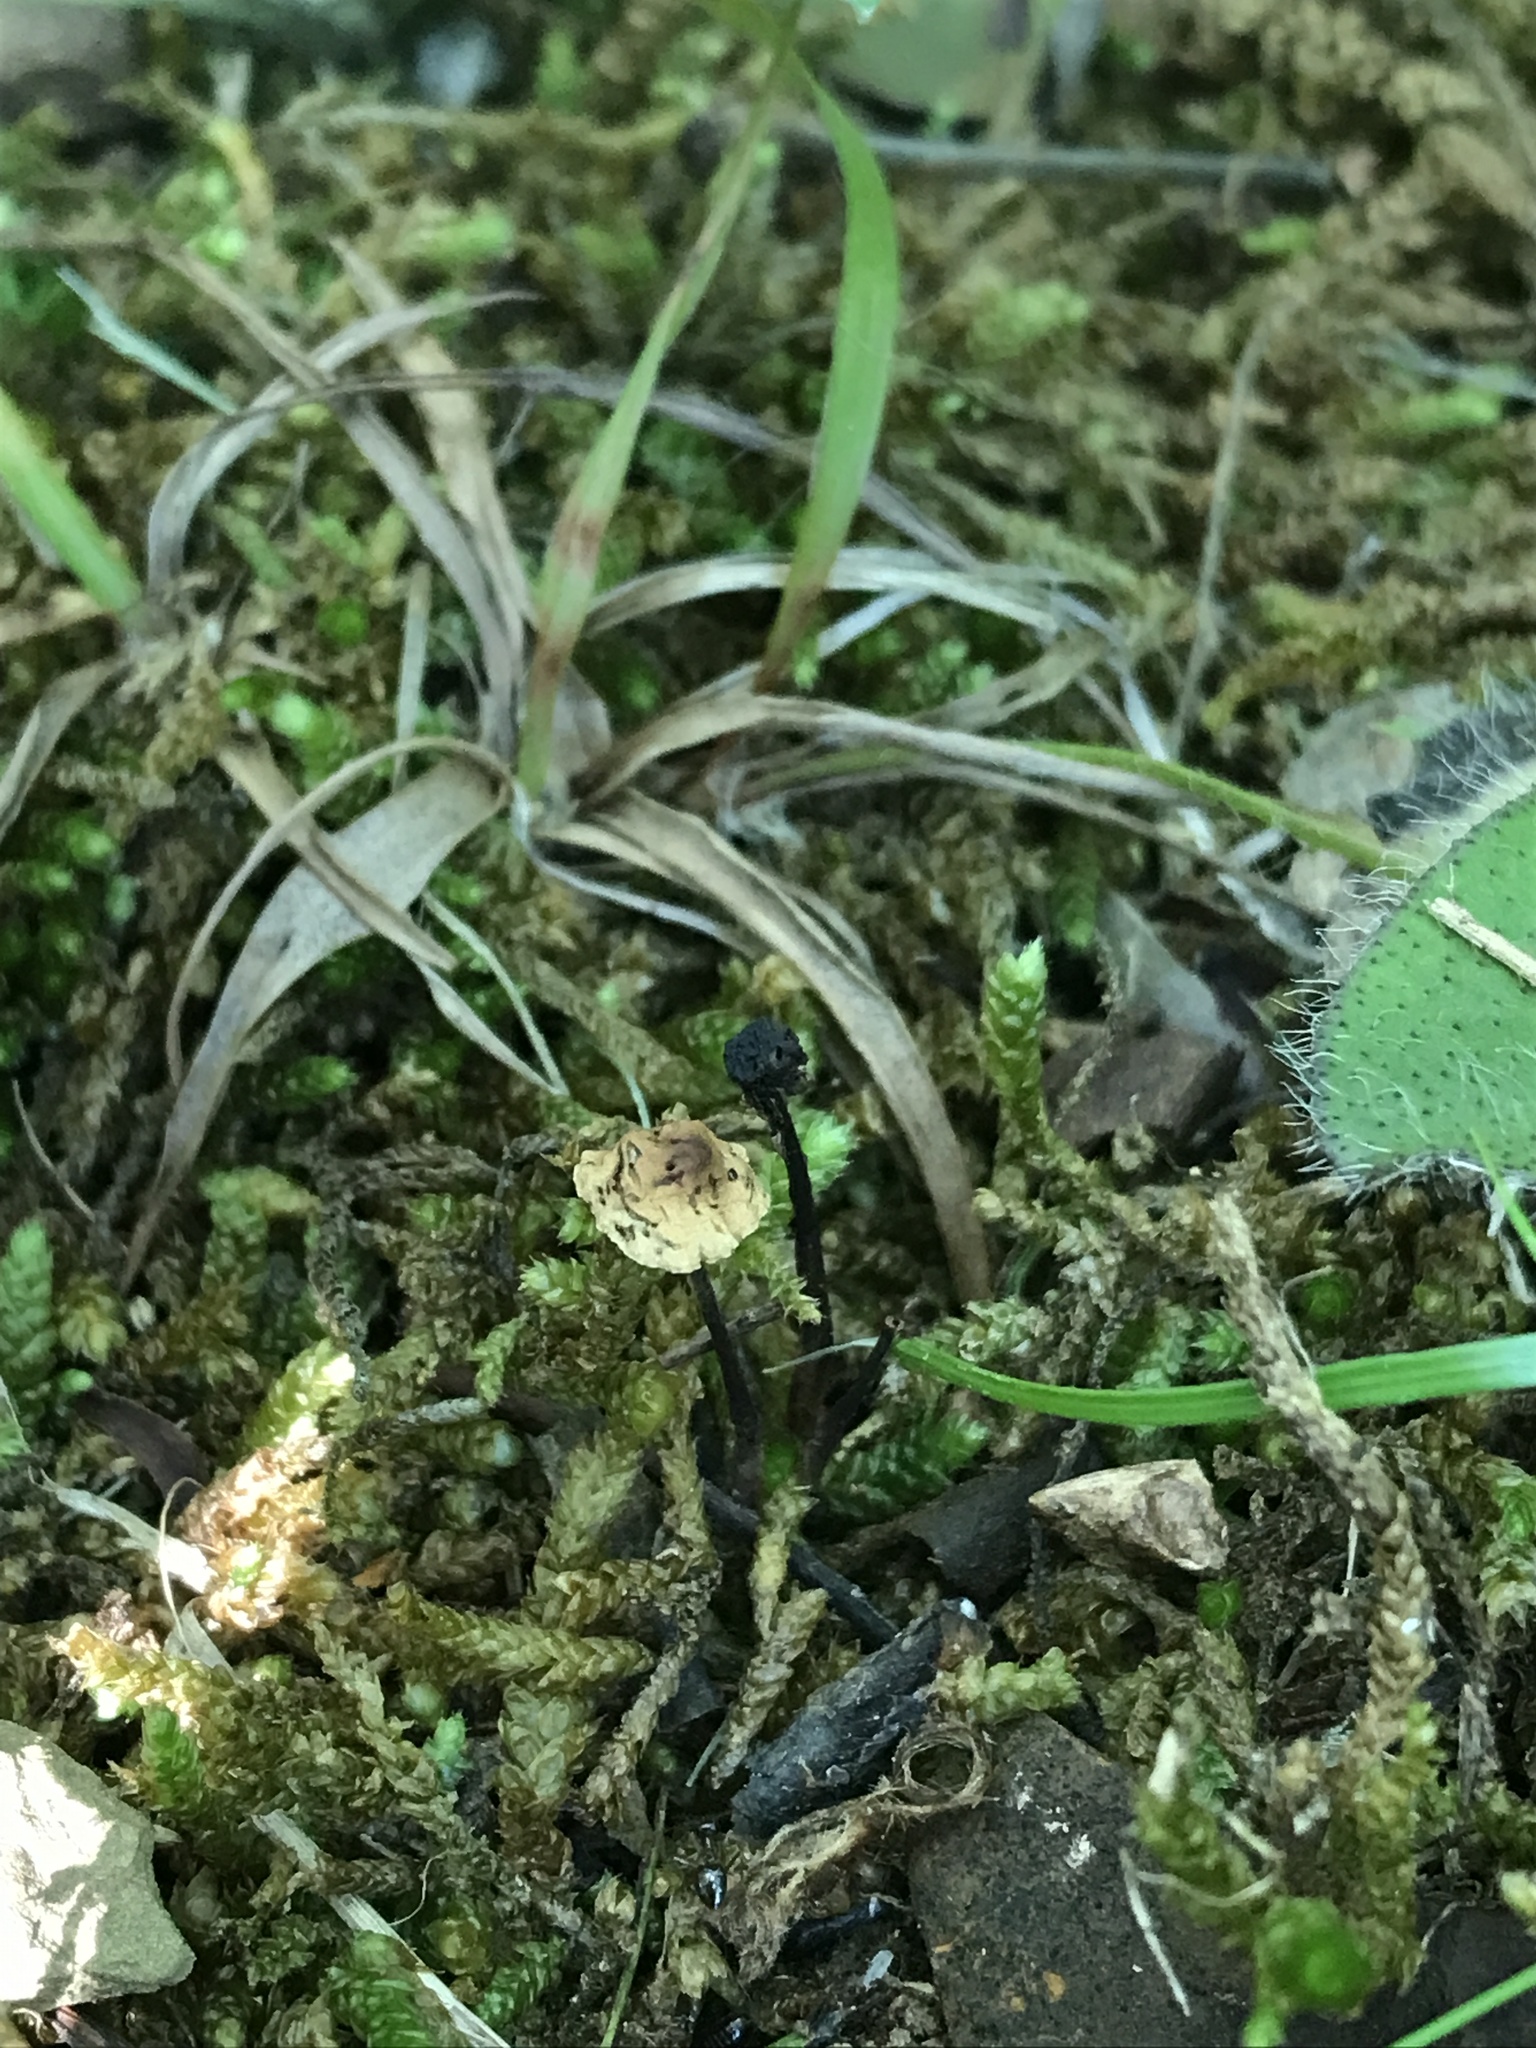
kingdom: Fungi
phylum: Basidiomycota
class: Agaricomycetes
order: Agaricales
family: Omphalotaceae
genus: Gymnopus
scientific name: Gymnopus semihirtipes
